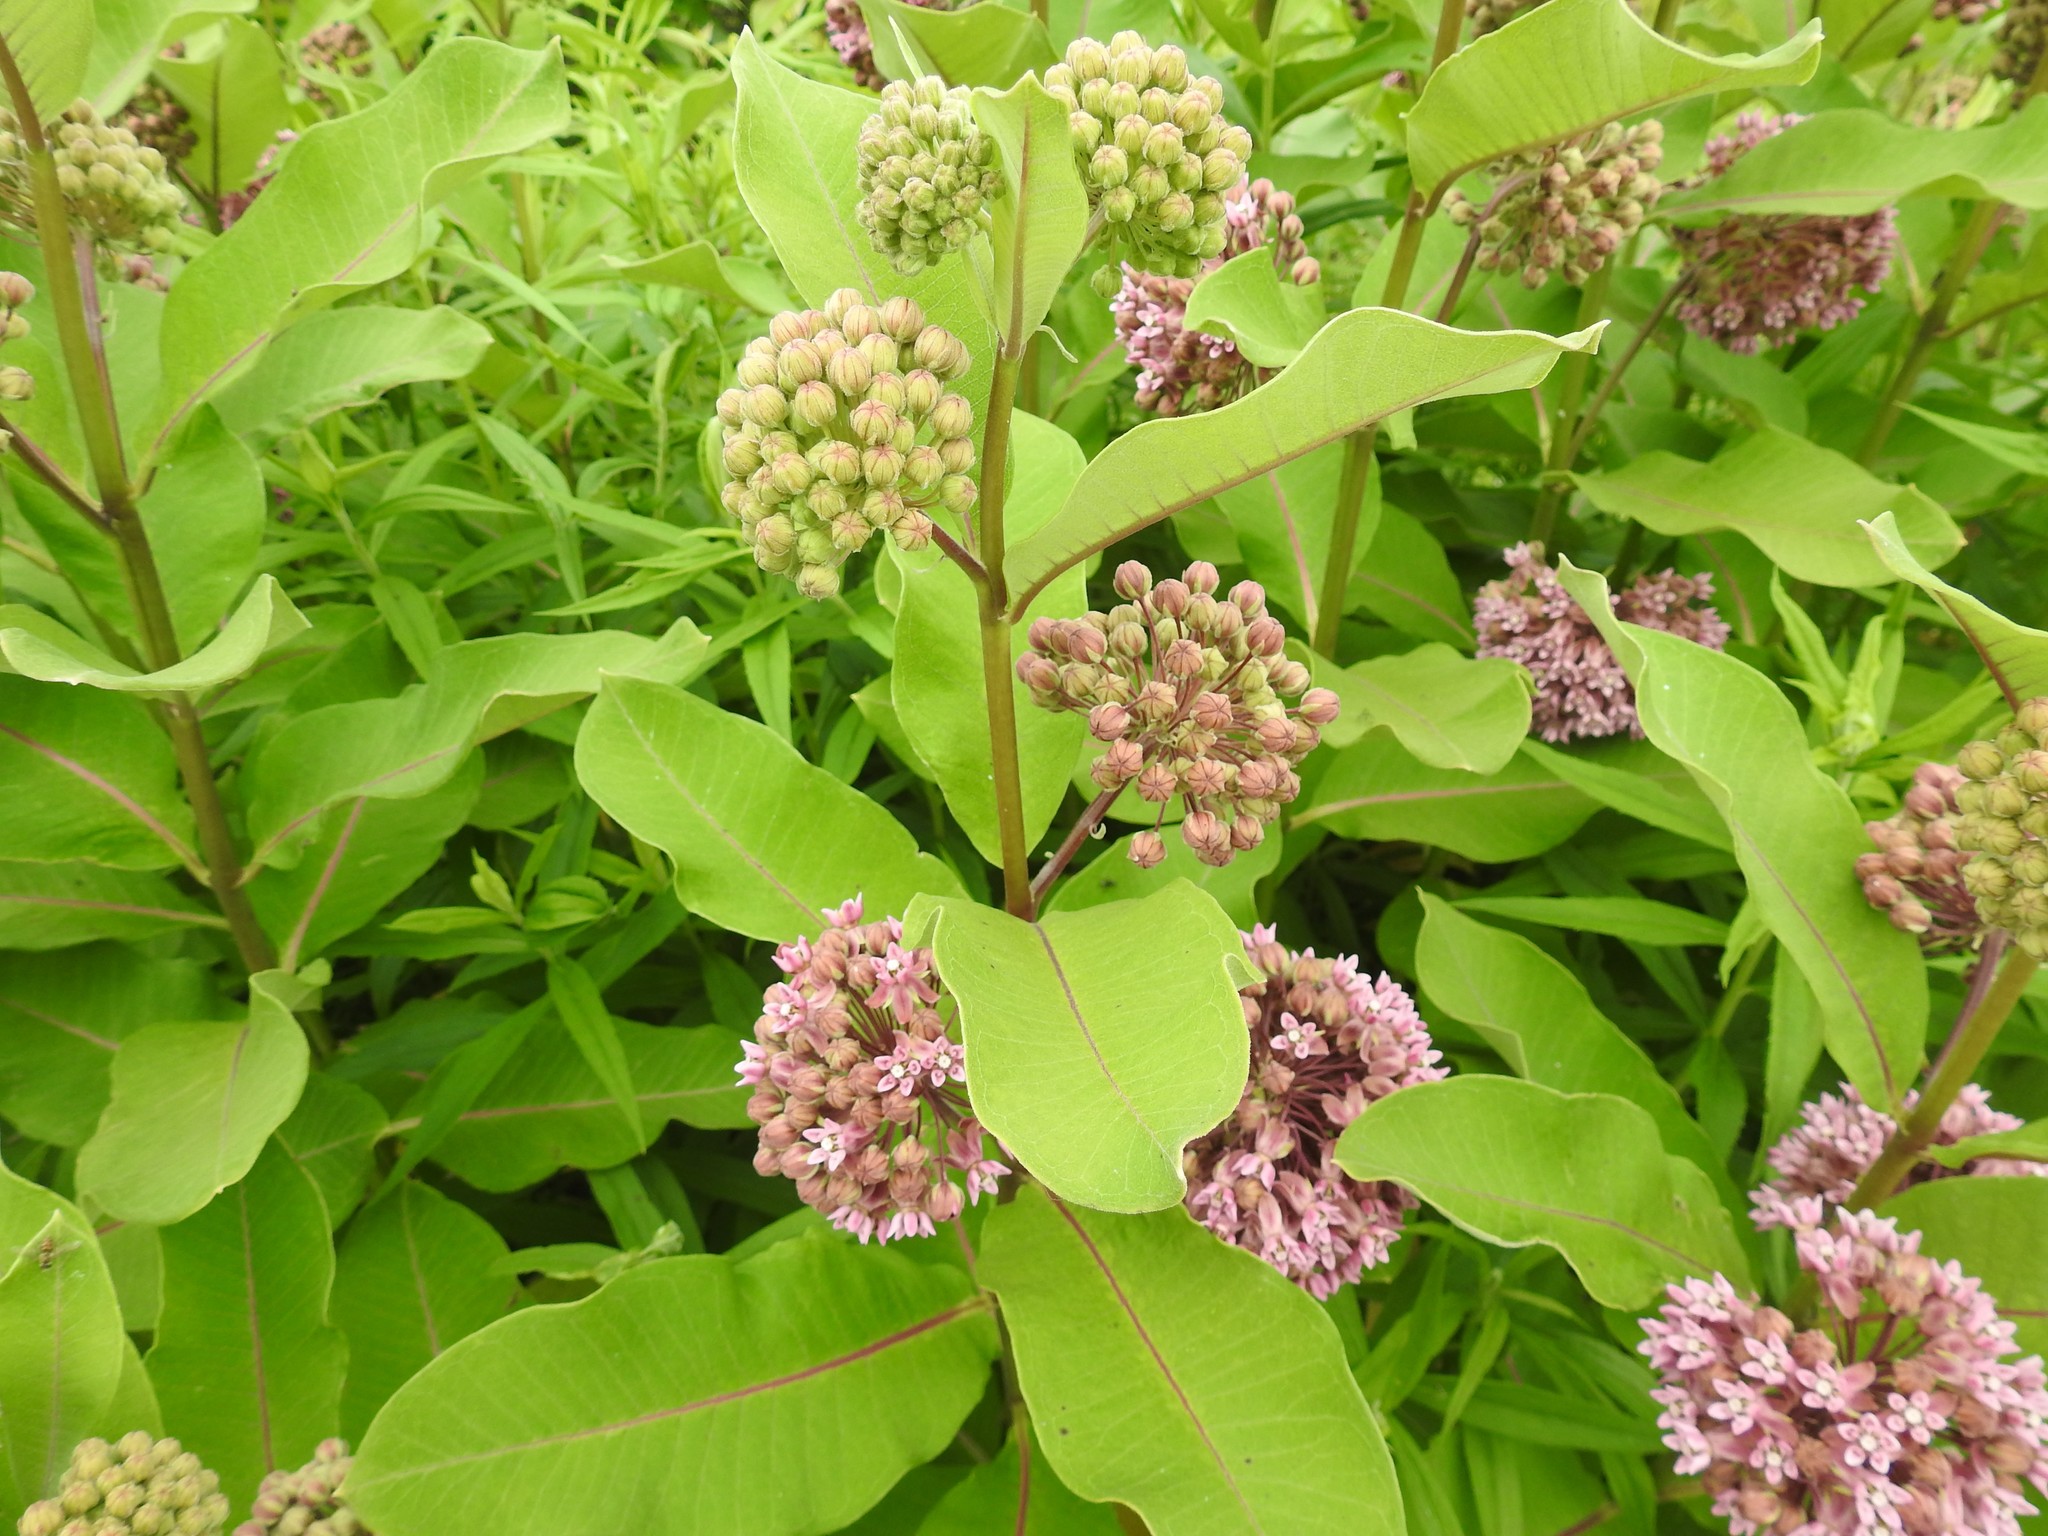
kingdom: Plantae
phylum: Tracheophyta
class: Magnoliopsida
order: Gentianales
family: Apocynaceae
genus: Asclepias
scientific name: Asclepias syriaca
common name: Common milkweed
